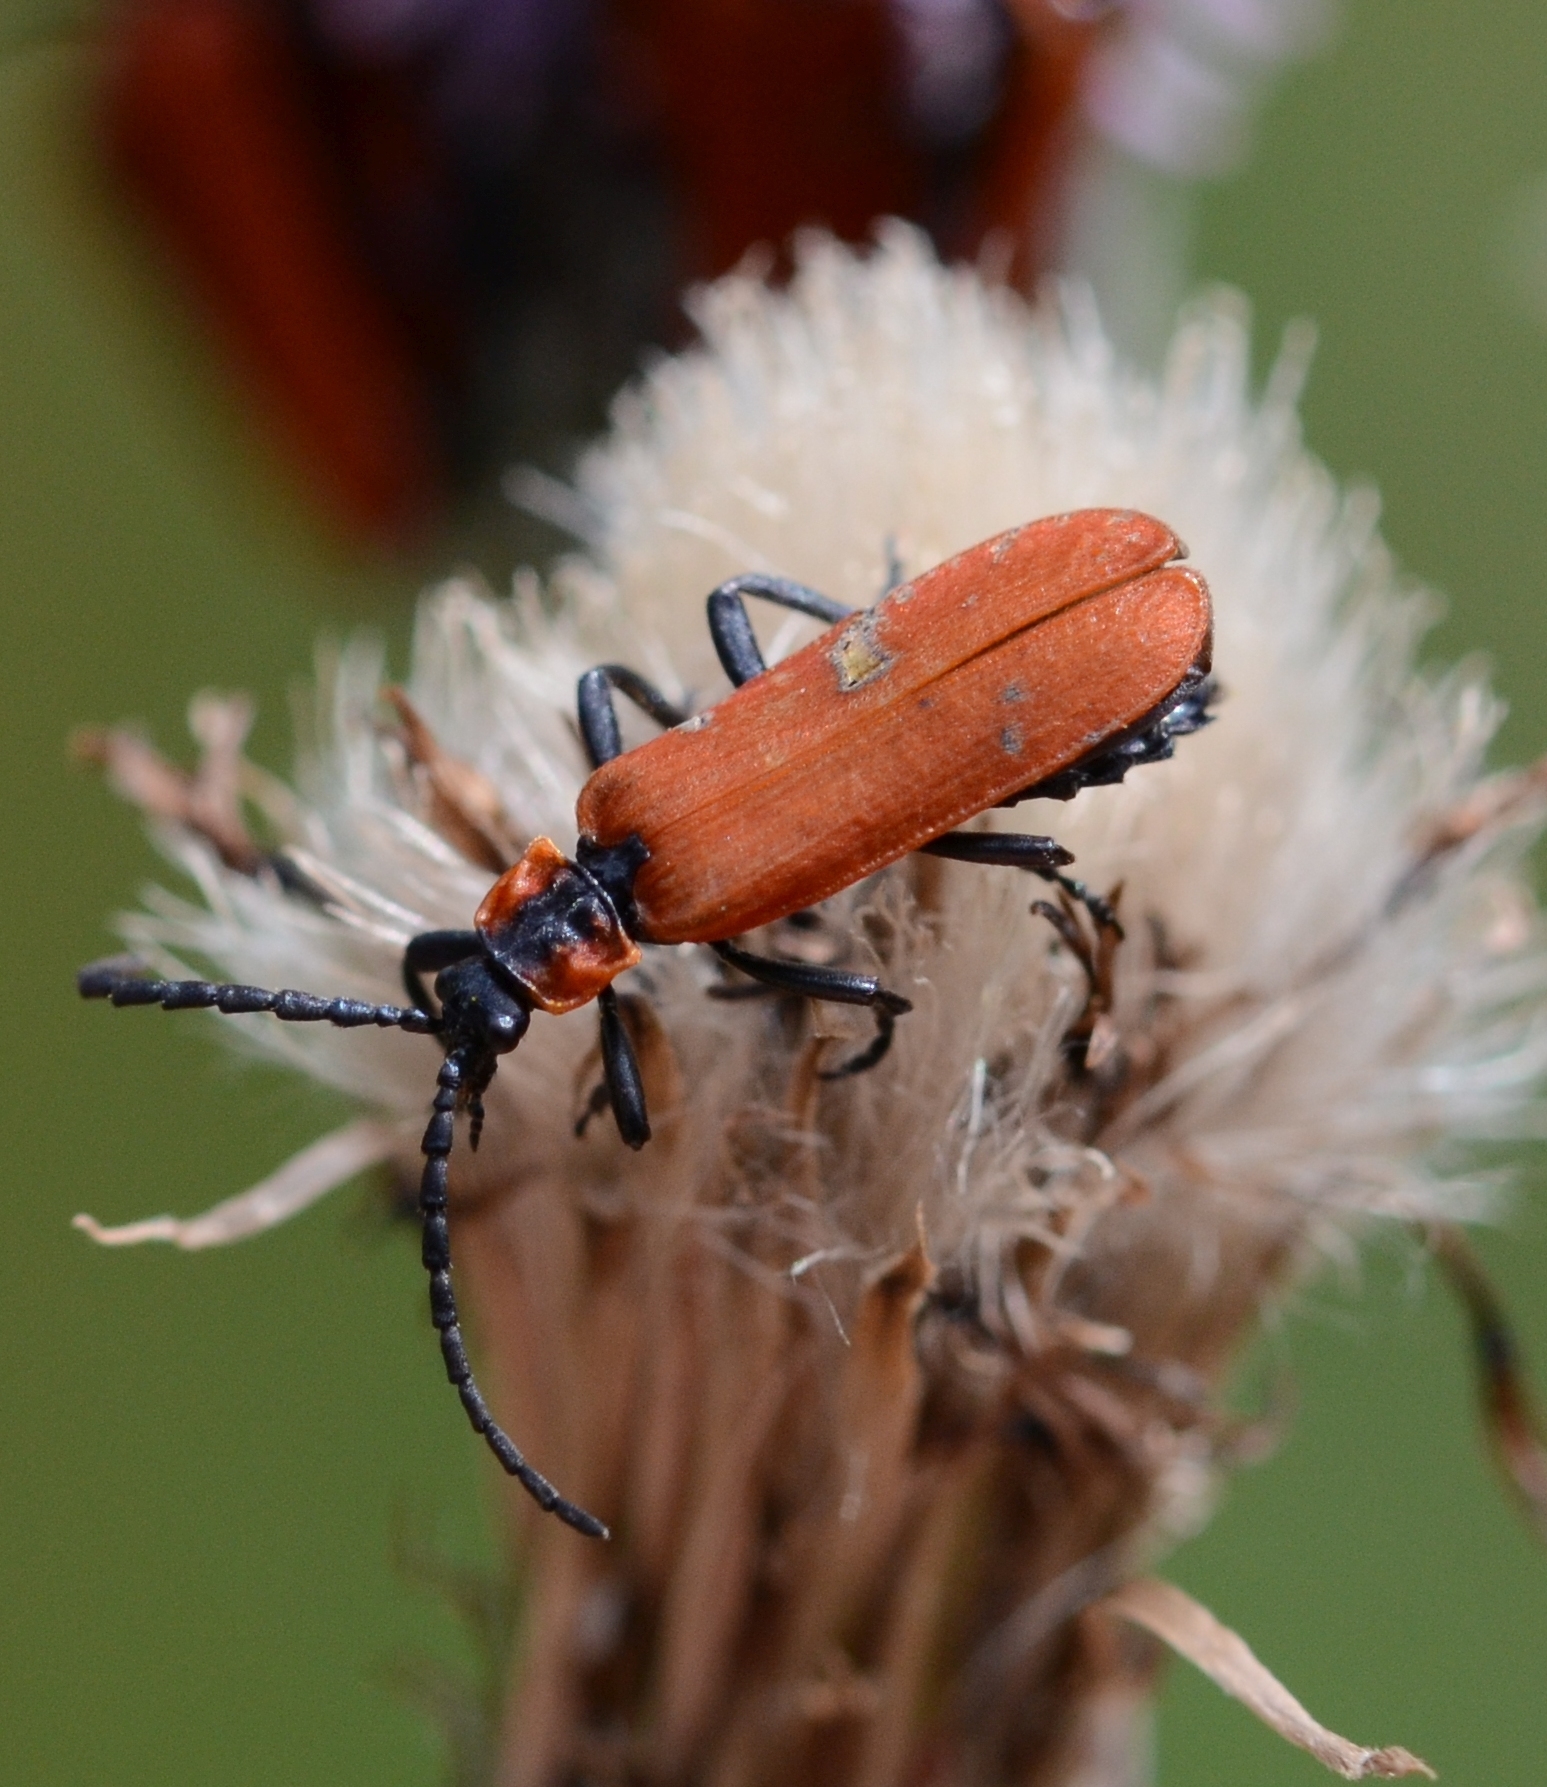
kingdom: Animalia
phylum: Arthropoda
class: Insecta
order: Coleoptera
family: Lycidae
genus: Lygistopterus
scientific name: Lygistopterus sanguineus
